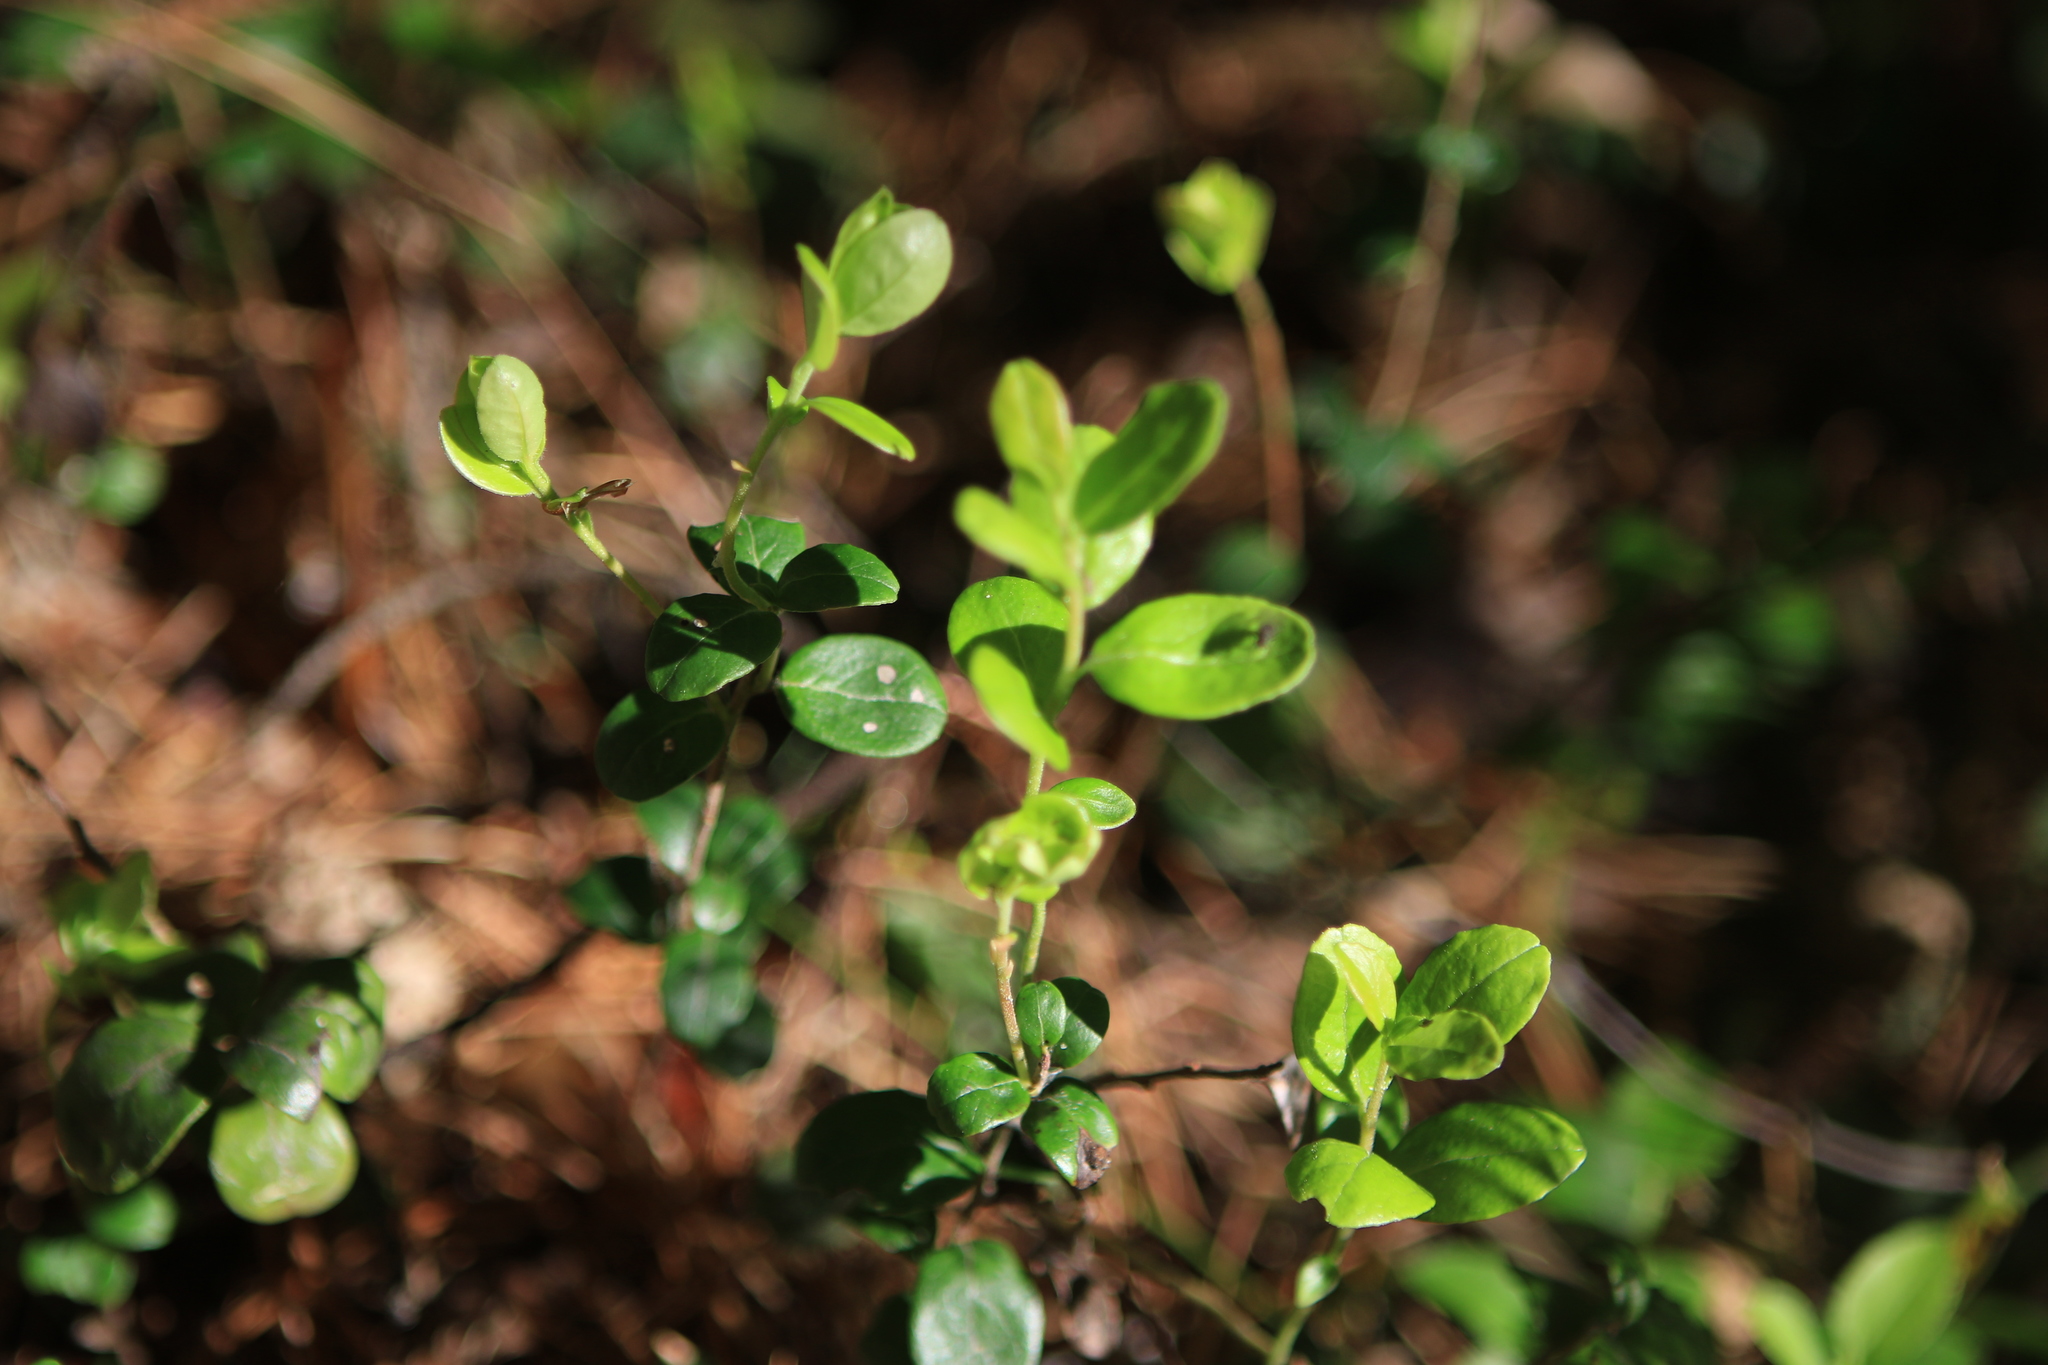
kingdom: Plantae
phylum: Tracheophyta
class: Magnoliopsida
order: Ericales
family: Ericaceae
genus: Vaccinium
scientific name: Vaccinium vitis-idaea
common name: Cowberry
